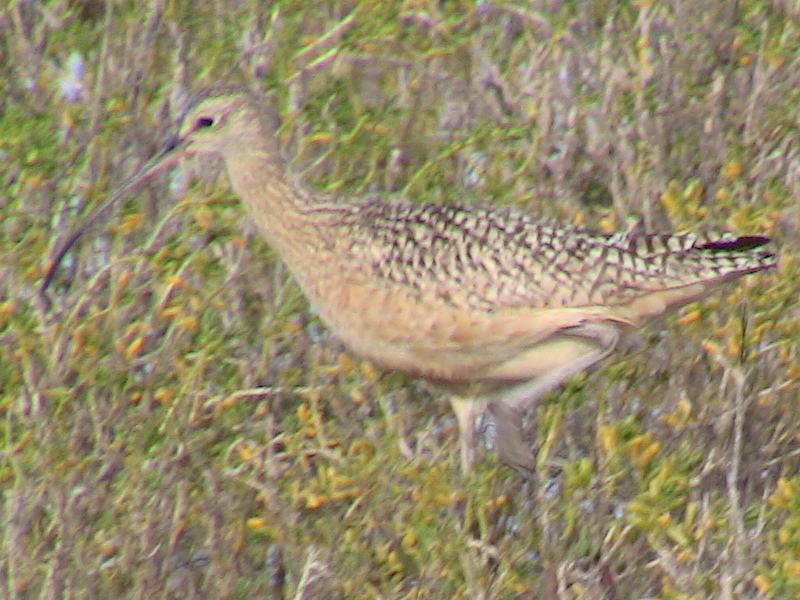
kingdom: Animalia
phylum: Chordata
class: Aves
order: Charadriiformes
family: Scolopacidae
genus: Numenius
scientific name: Numenius americanus
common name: Long-billed curlew
